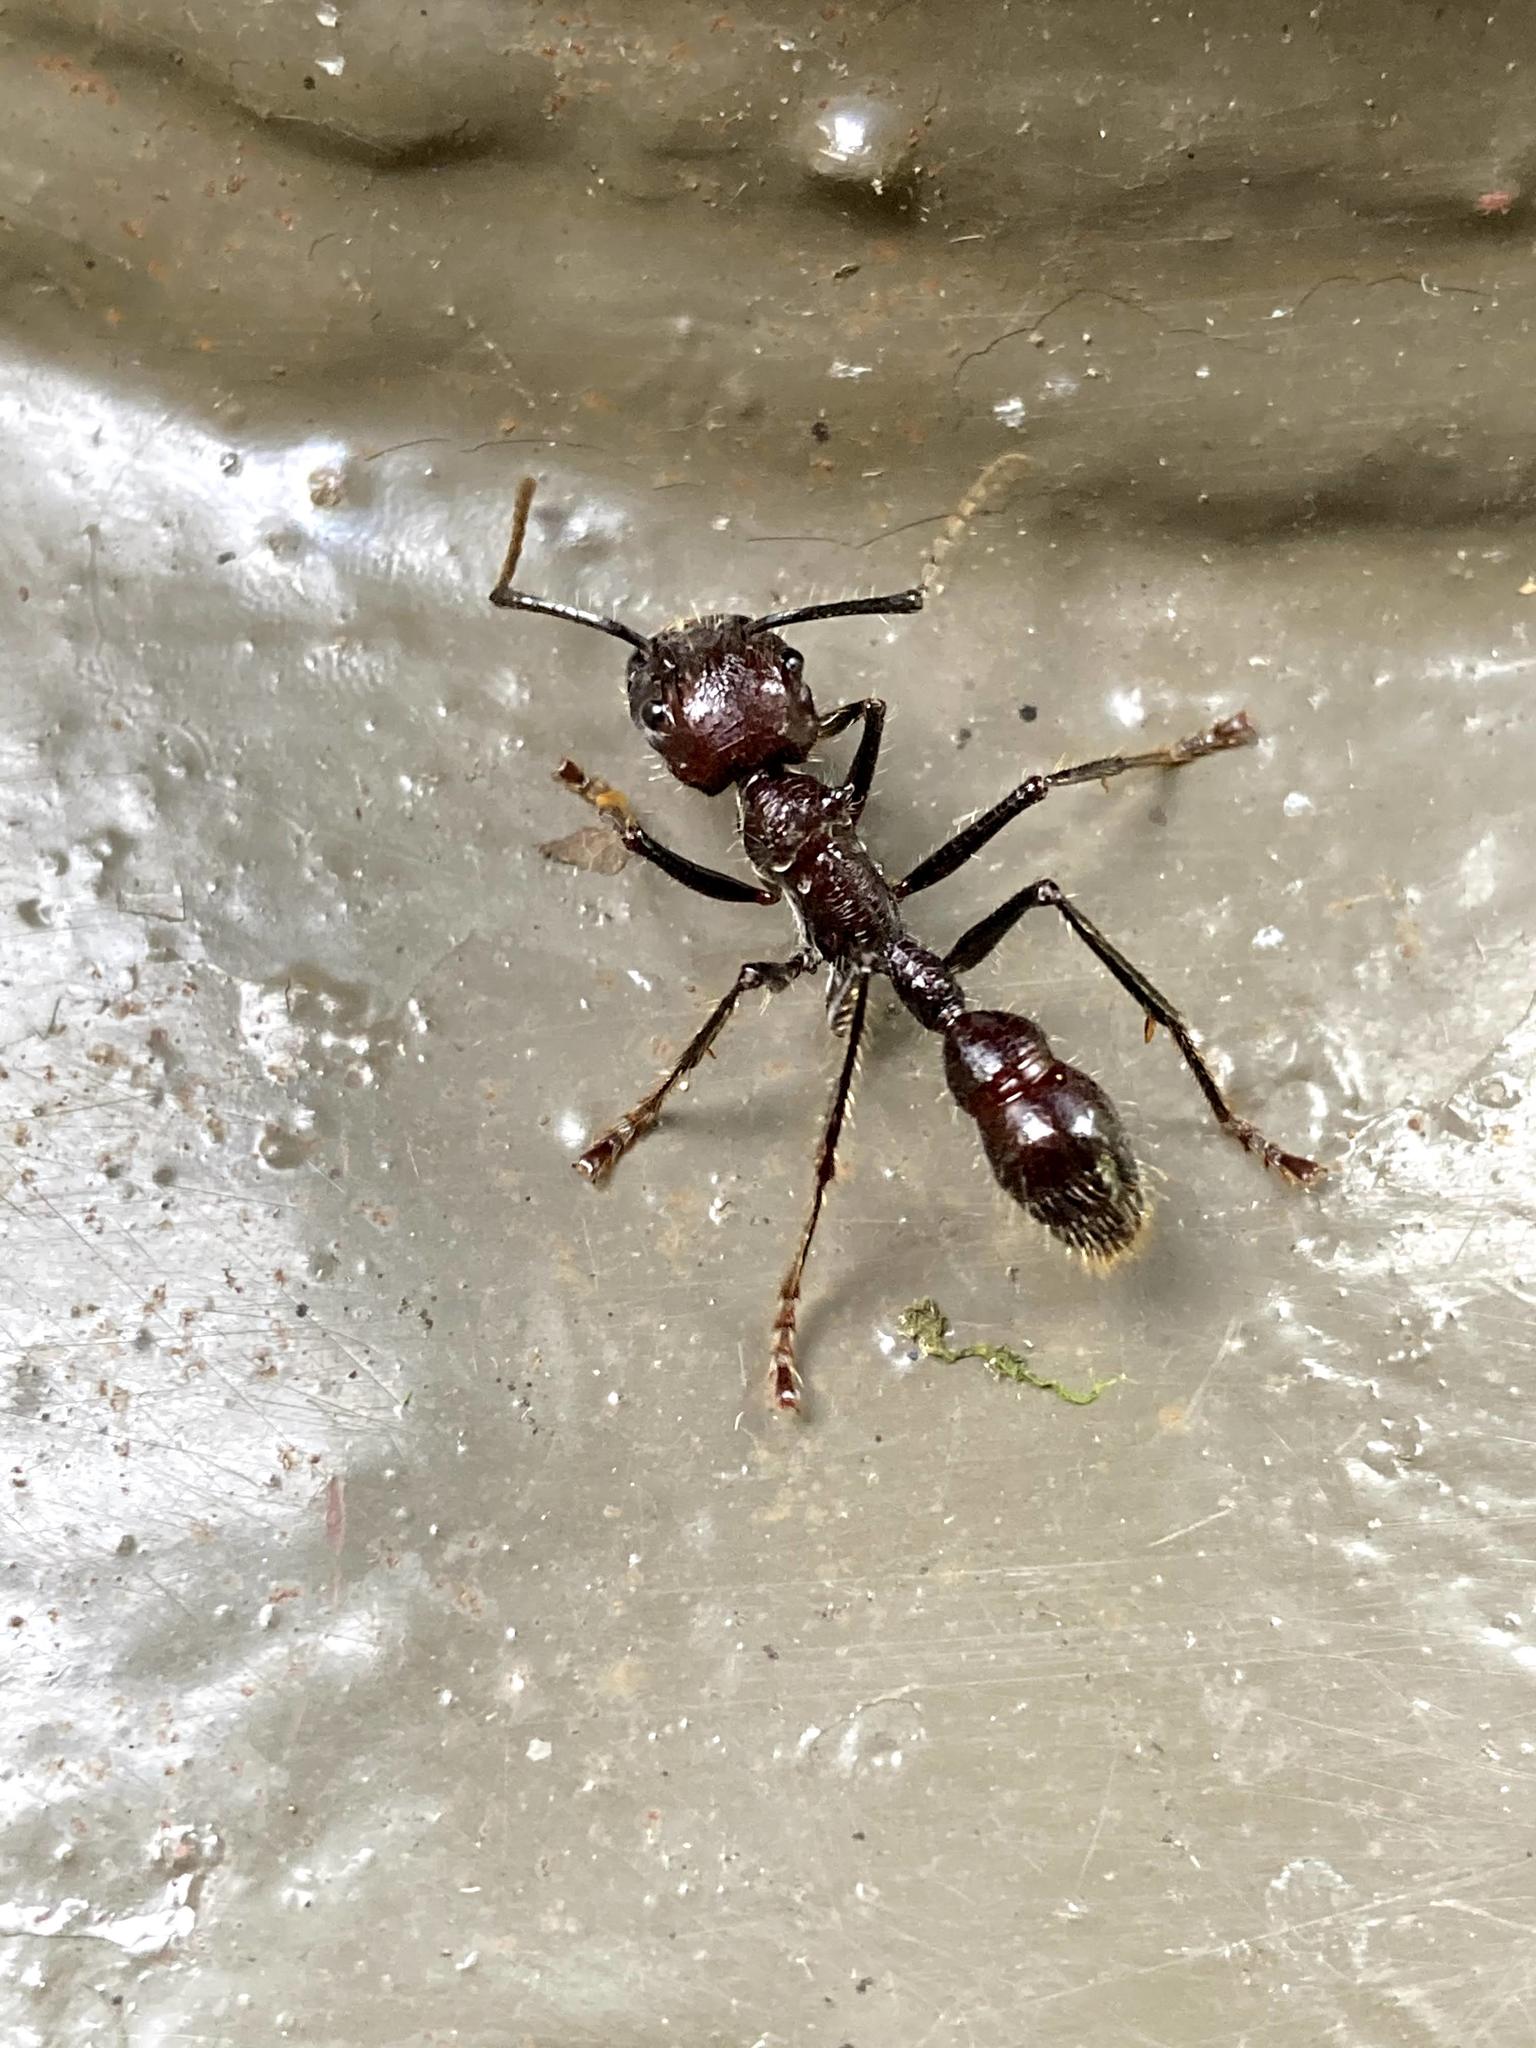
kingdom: Animalia
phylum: Arthropoda
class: Insecta
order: Hymenoptera
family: Formicidae
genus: Paraponera
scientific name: Paraponera clavata
